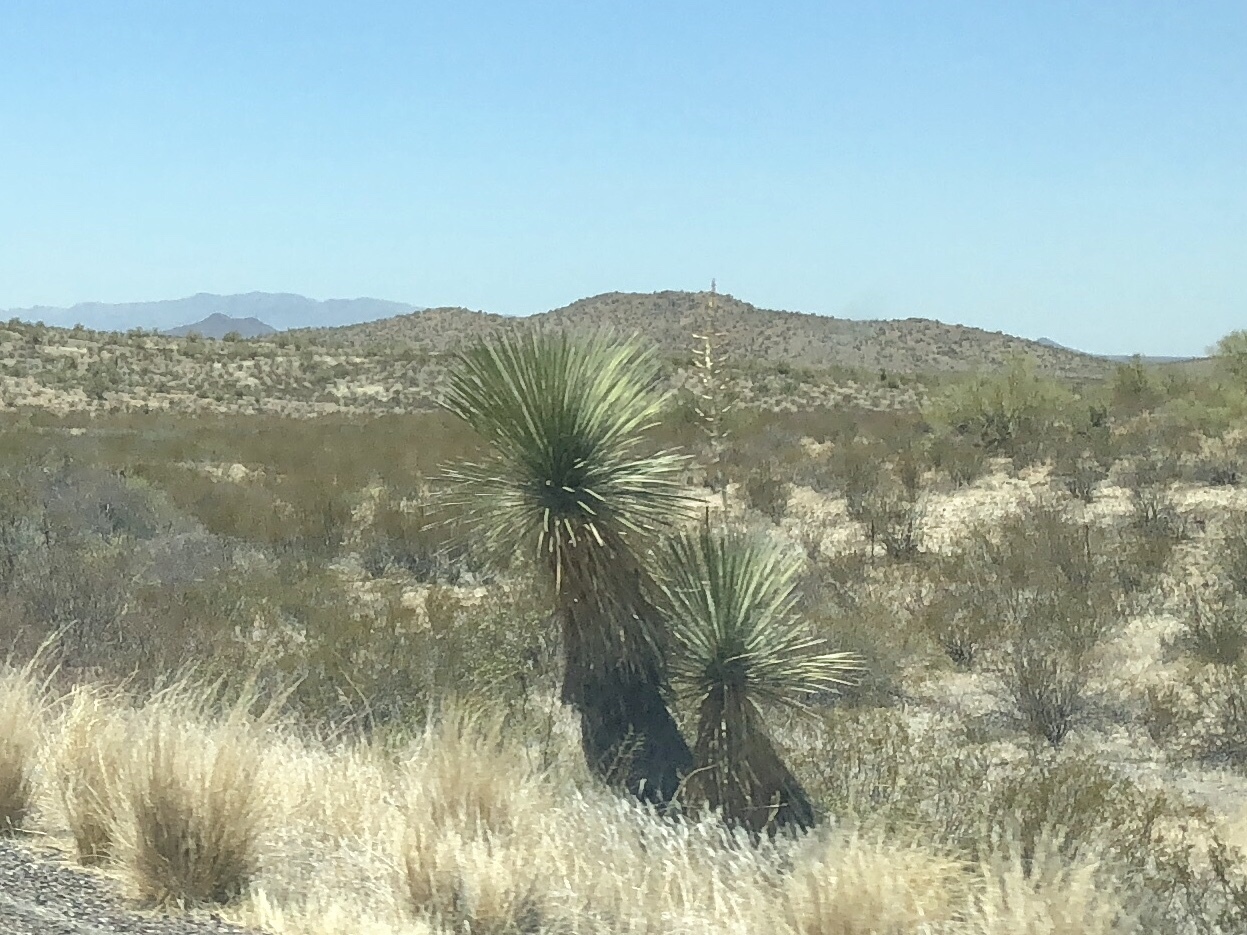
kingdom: Plantae
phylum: Tracheophyta
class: Liliopsida
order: Asparagales
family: Asparagaceae
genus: Yucca
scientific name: Yucca elata
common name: Palmella
